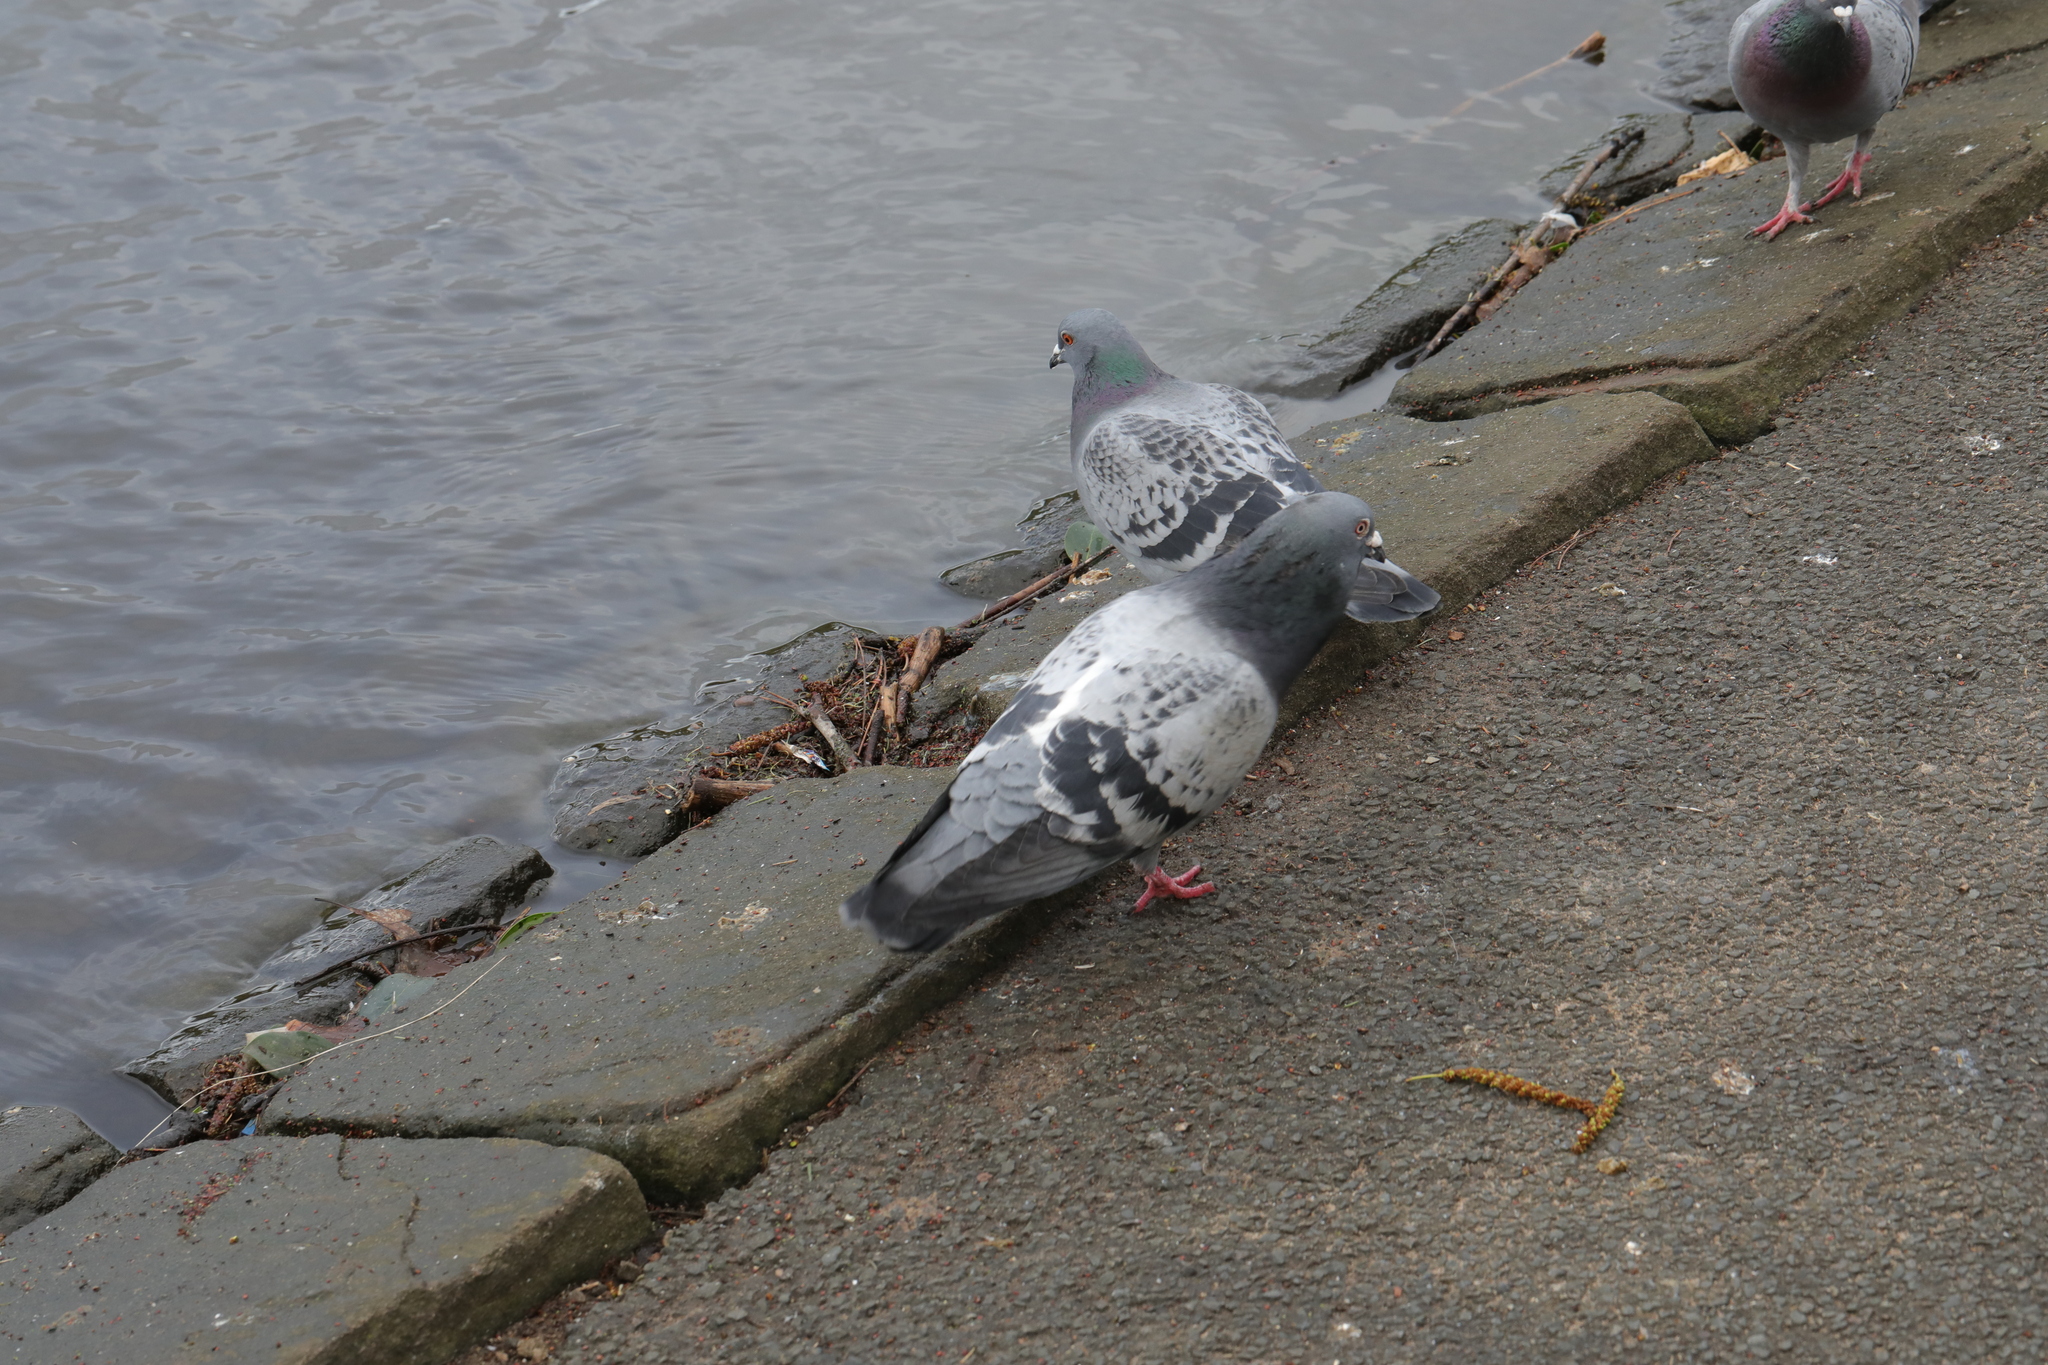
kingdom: Animalia
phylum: Chordata
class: Aves
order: Columbiformes
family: Columbidae
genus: Columba
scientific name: Columba livia
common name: Rock pigeon
